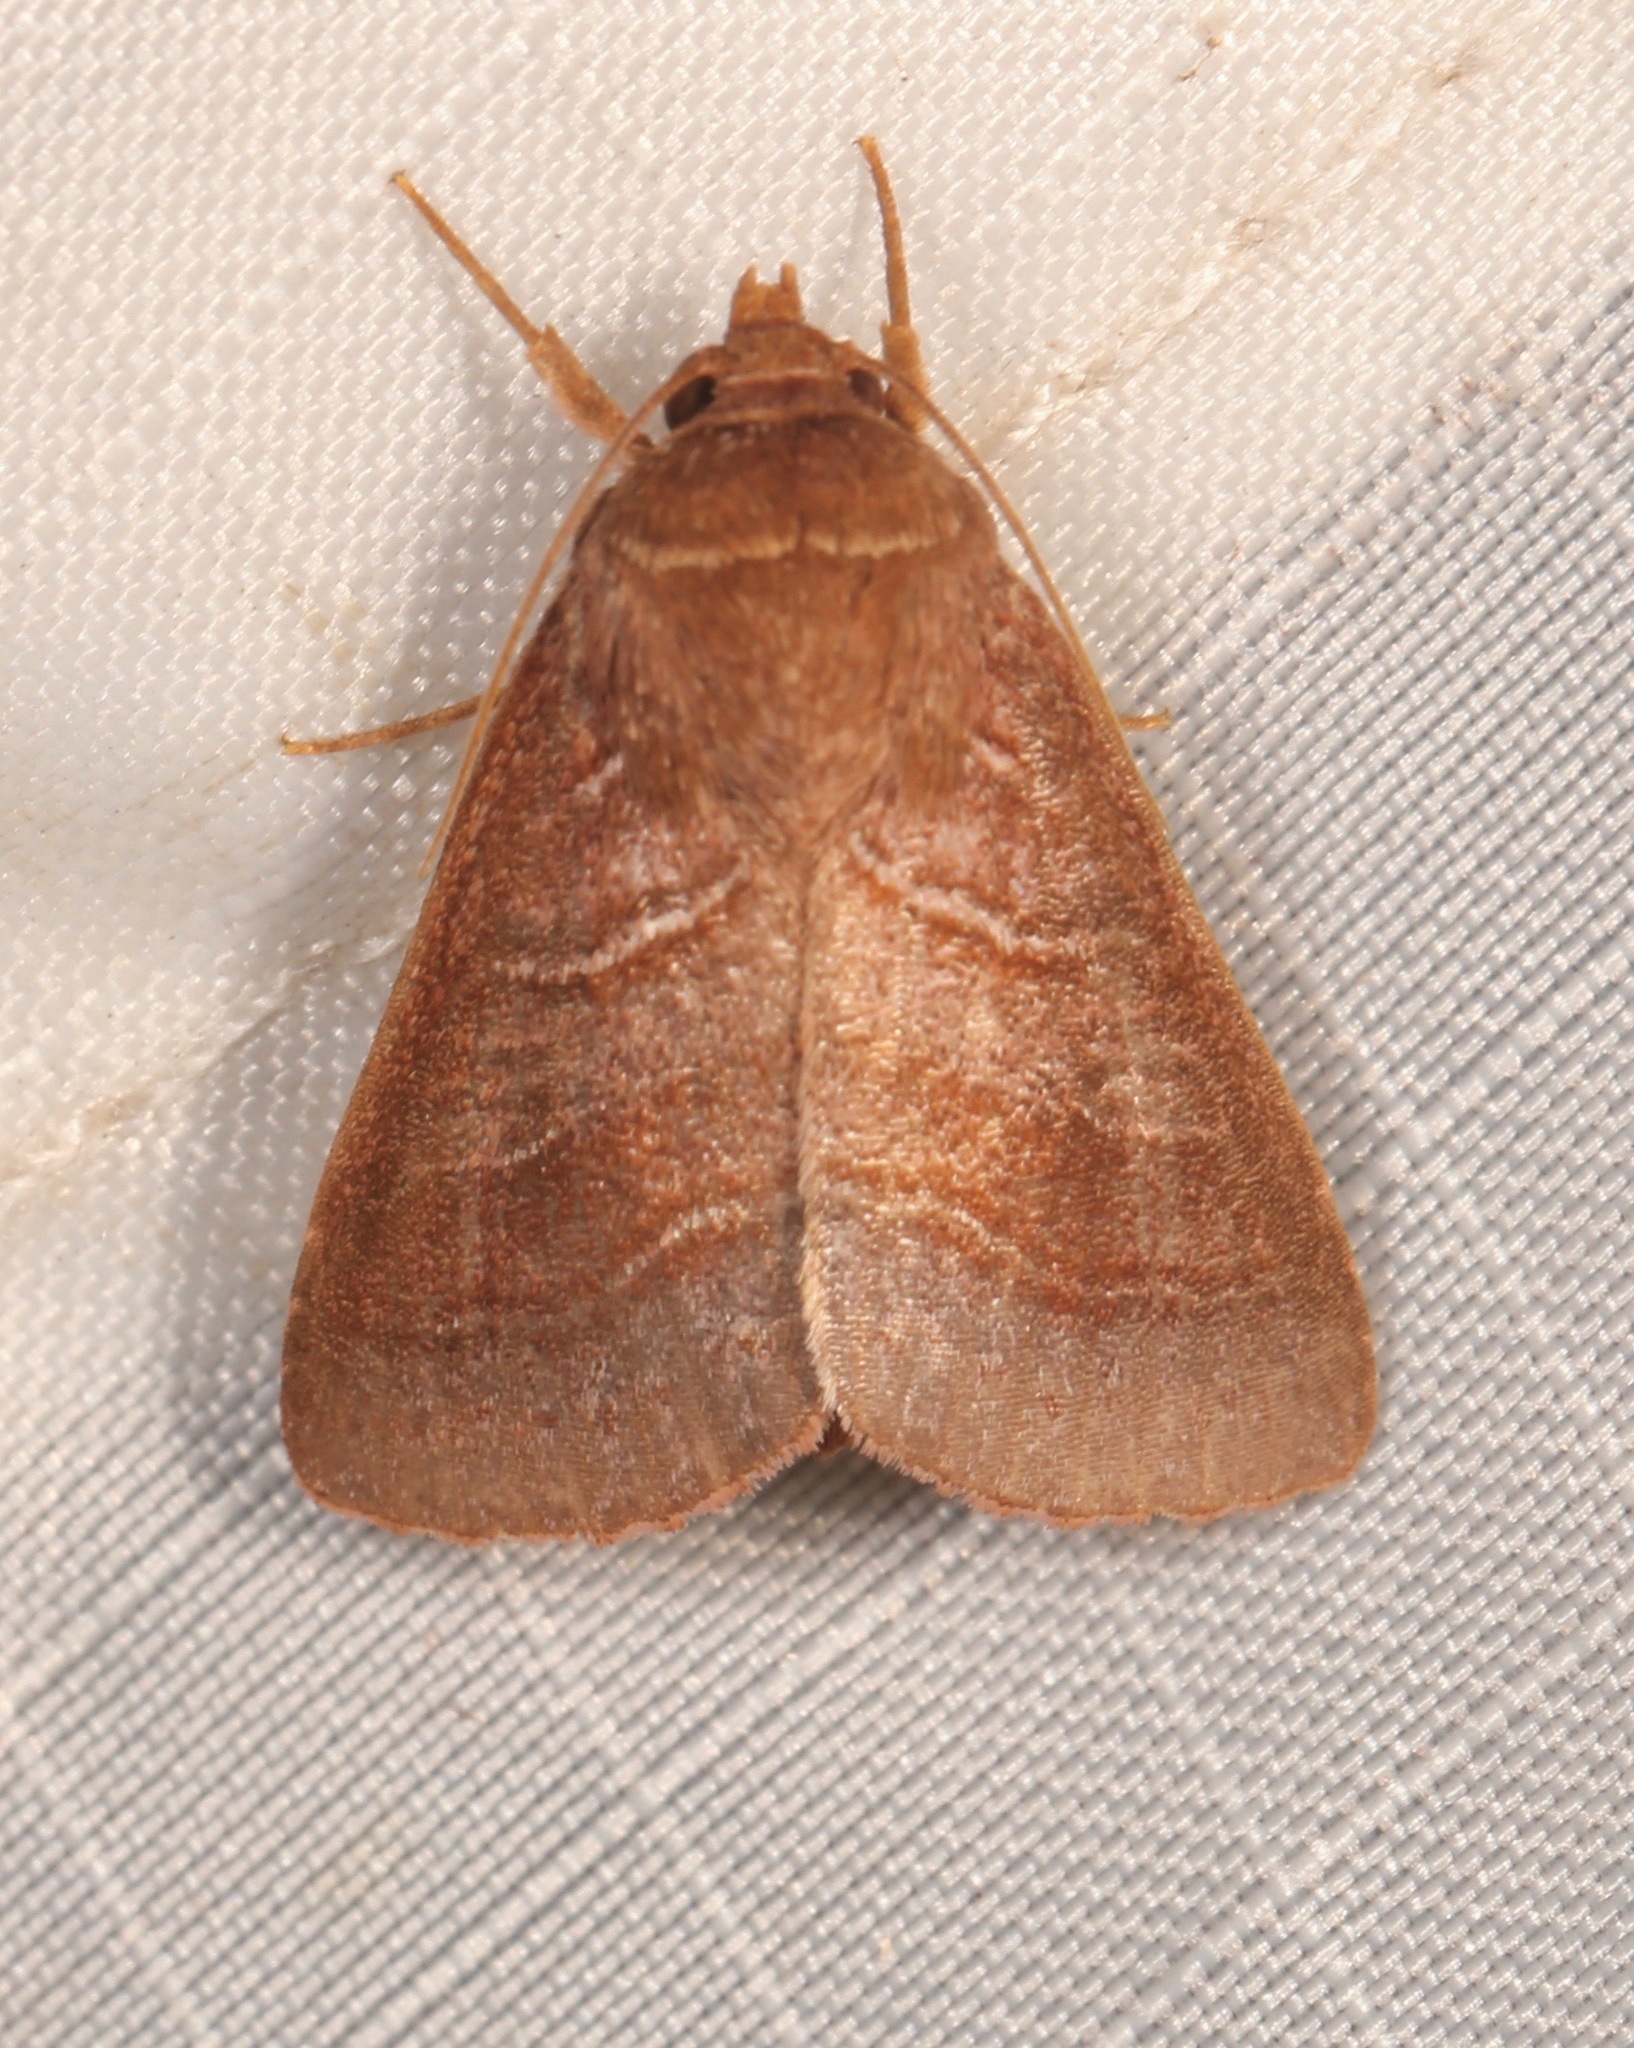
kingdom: Animalia
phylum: Arthropoda
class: Insecta
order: Lepidoptera
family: Noctuidae
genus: Phuphena
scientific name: Phuphena tura
